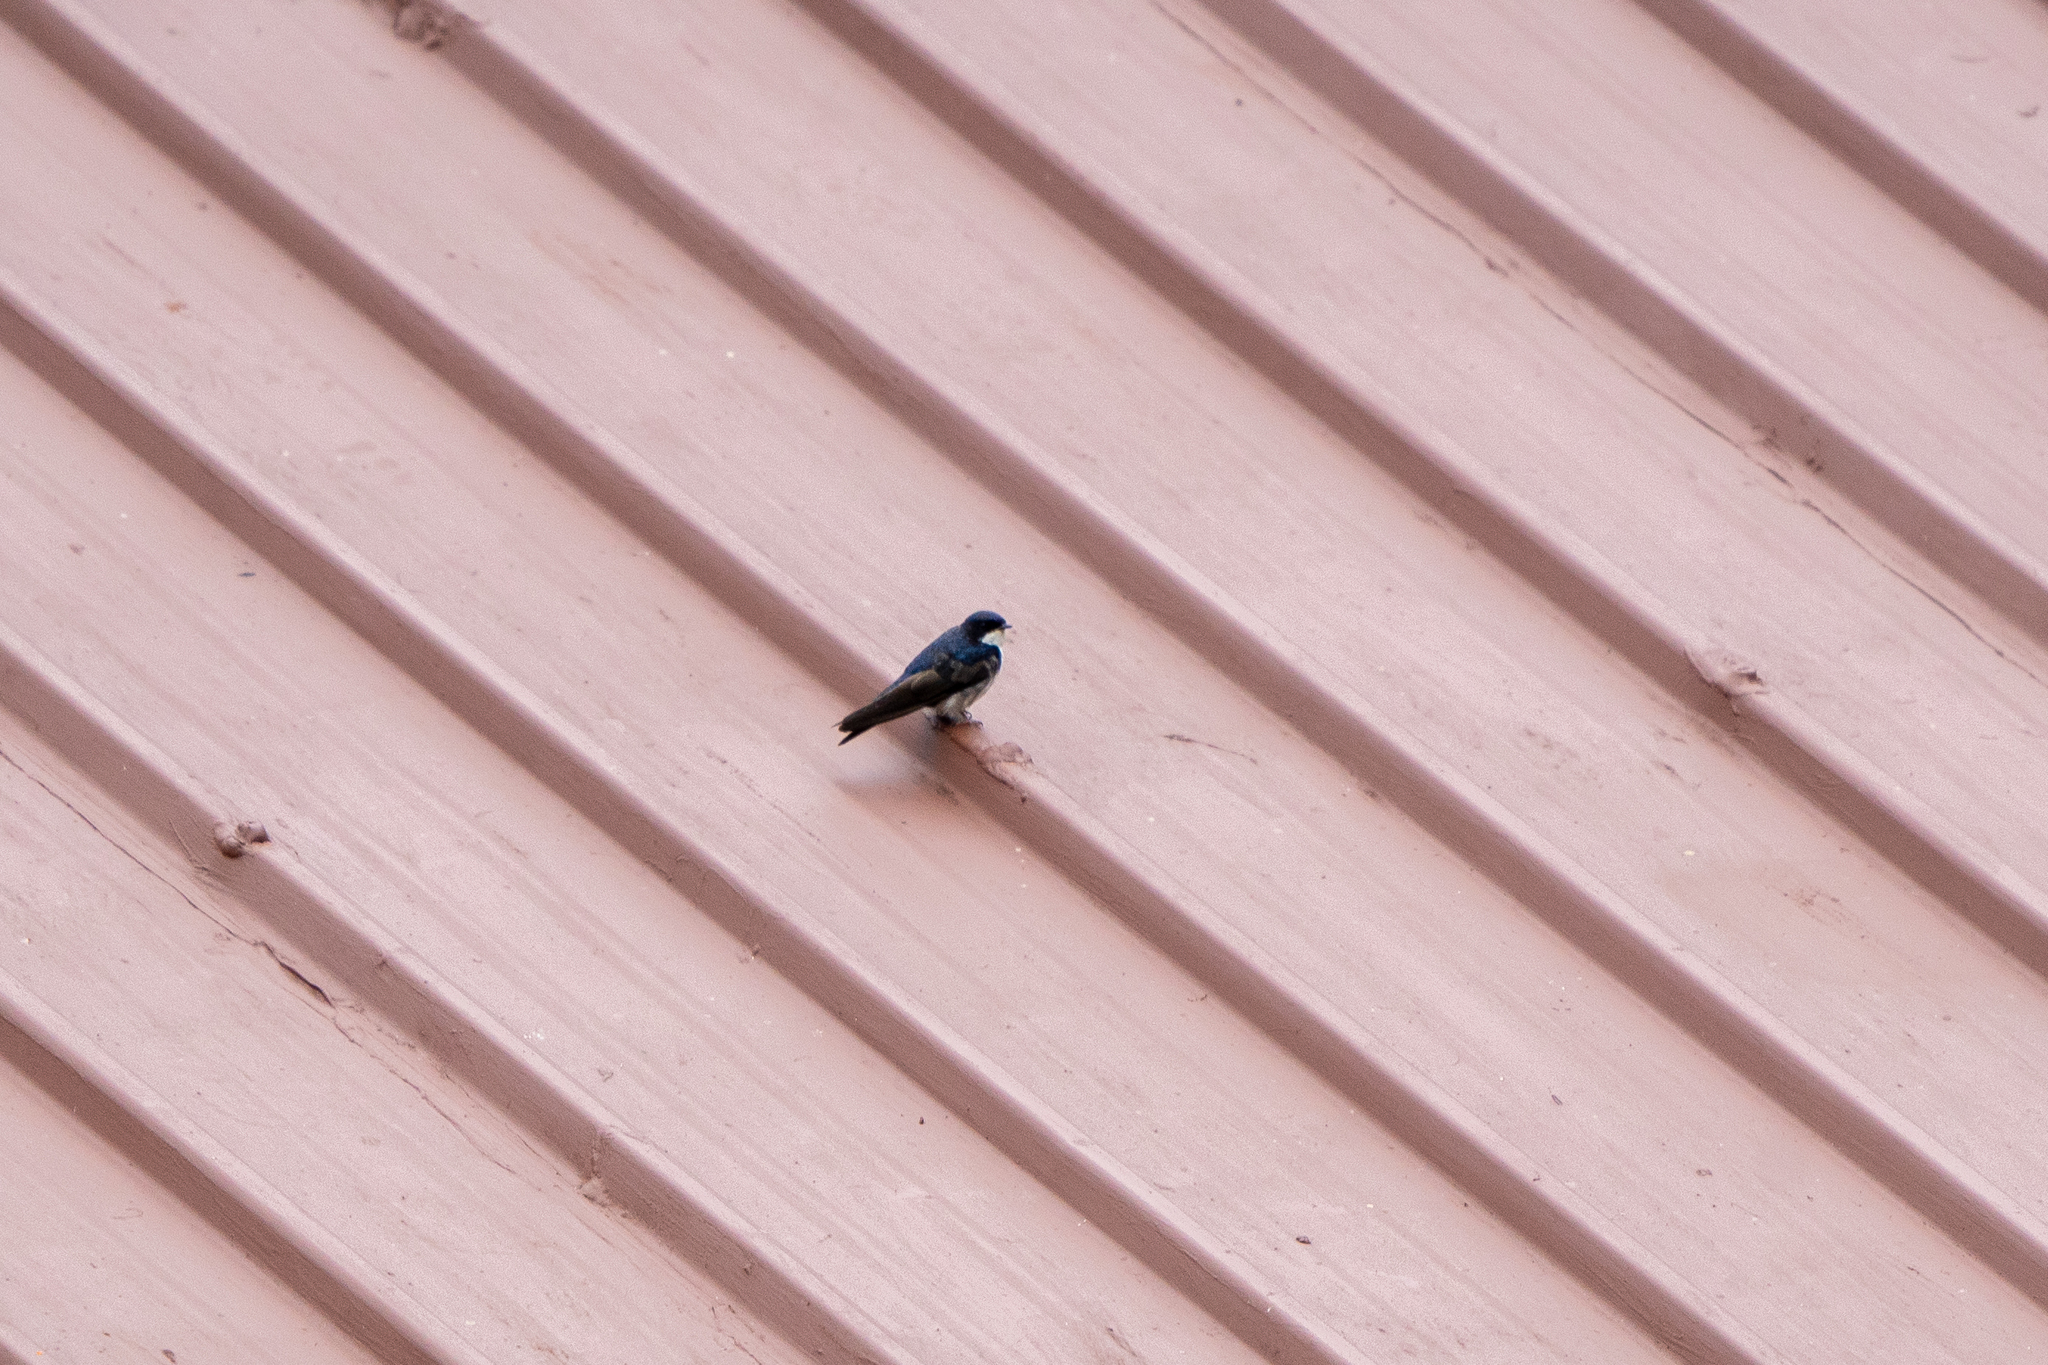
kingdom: Animalia
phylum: Chordata
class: Aves
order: Passeriformes
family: Hirundinidae
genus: Notiochelidon
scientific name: Notiochelidon cyanoleuca
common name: Blue-and-white swallow
